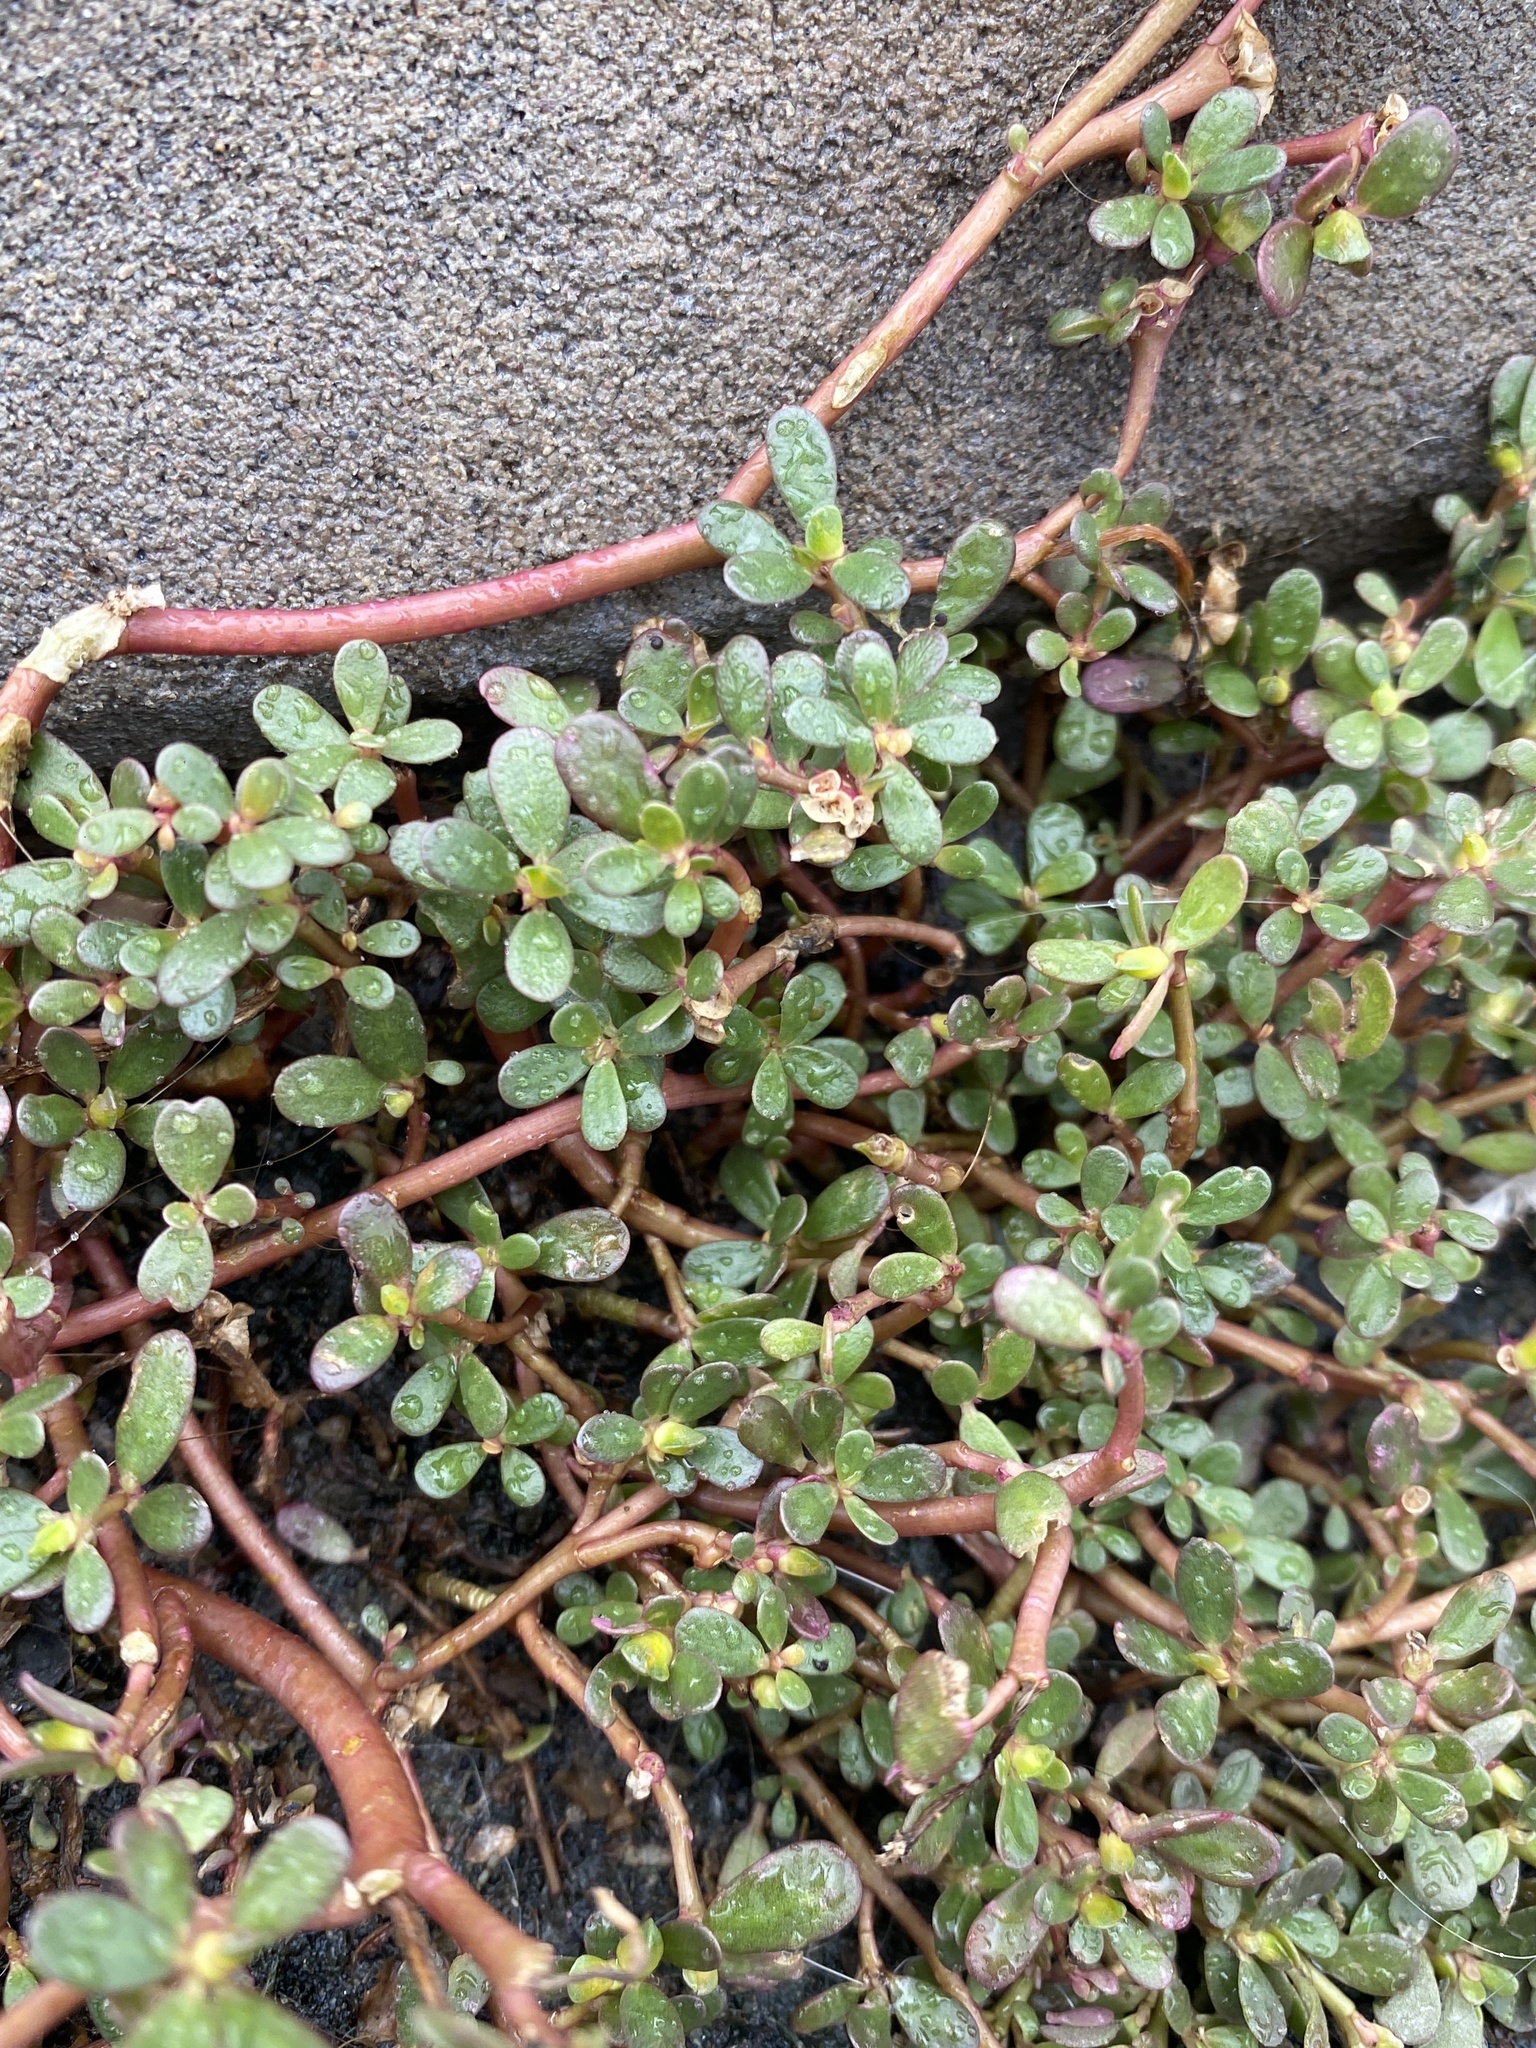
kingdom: Plantae
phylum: Tracheophyta
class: Magnoliopsida
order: Caryophyllales
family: Portulacaceae
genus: Portulaca
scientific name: Portulaca oleracea
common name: Common purslane
